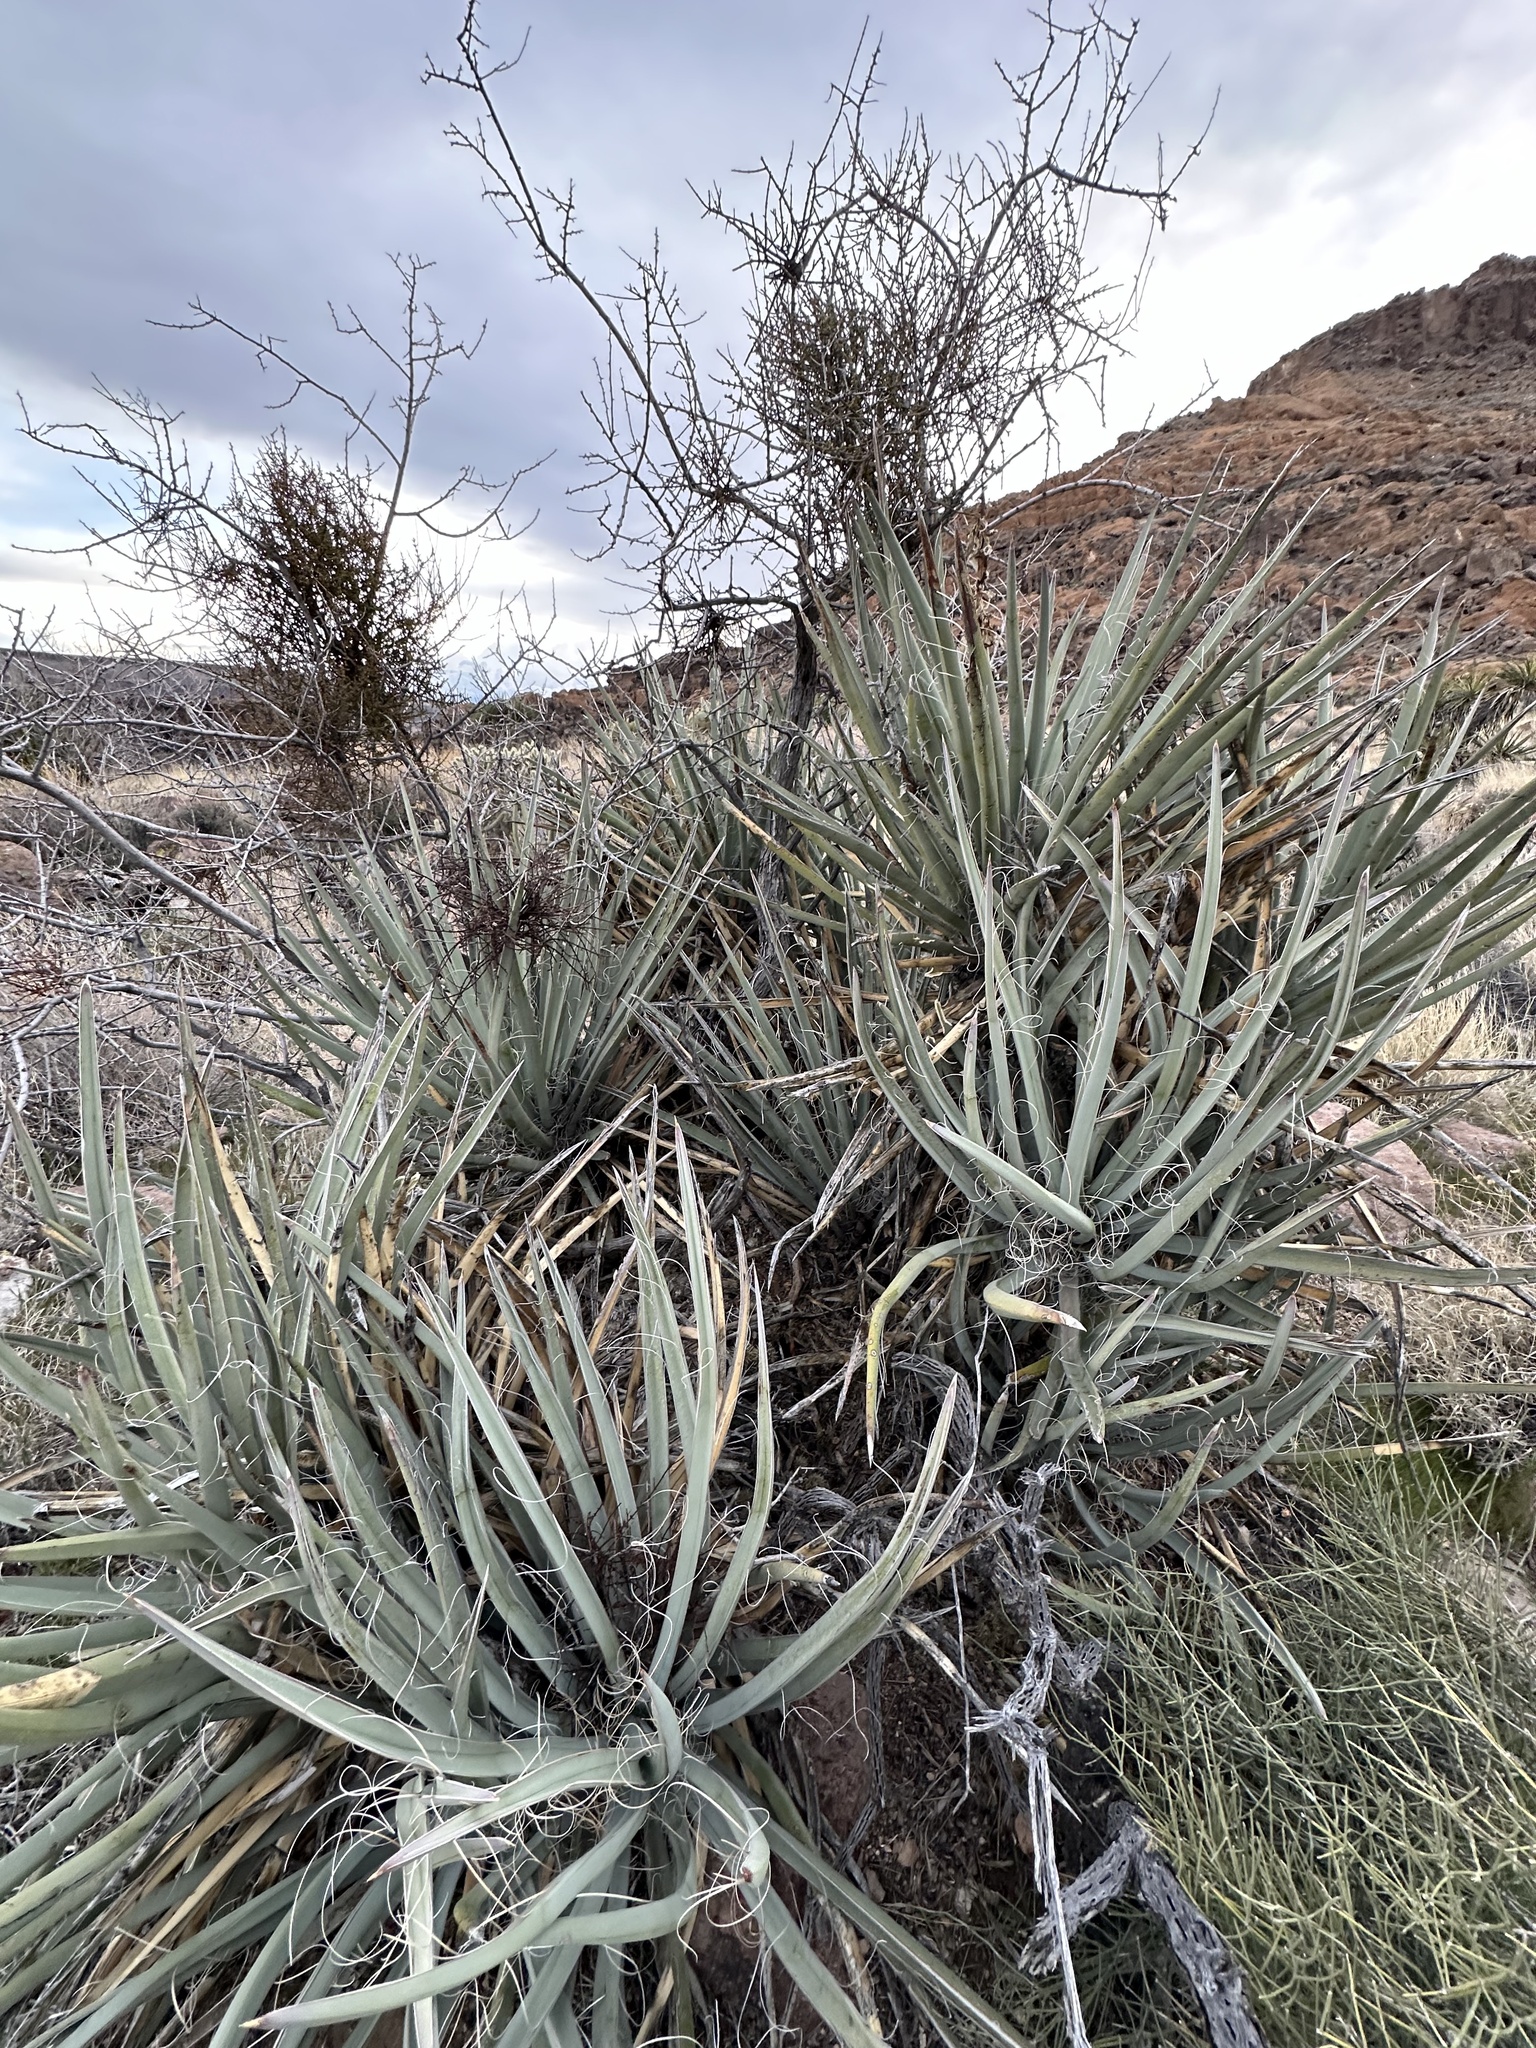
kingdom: Plantae
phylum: Tracheophyta
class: Liliopsida
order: Asparagales
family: Asparagaceae
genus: Yucca
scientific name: Yucca baccata
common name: Banana yucca
